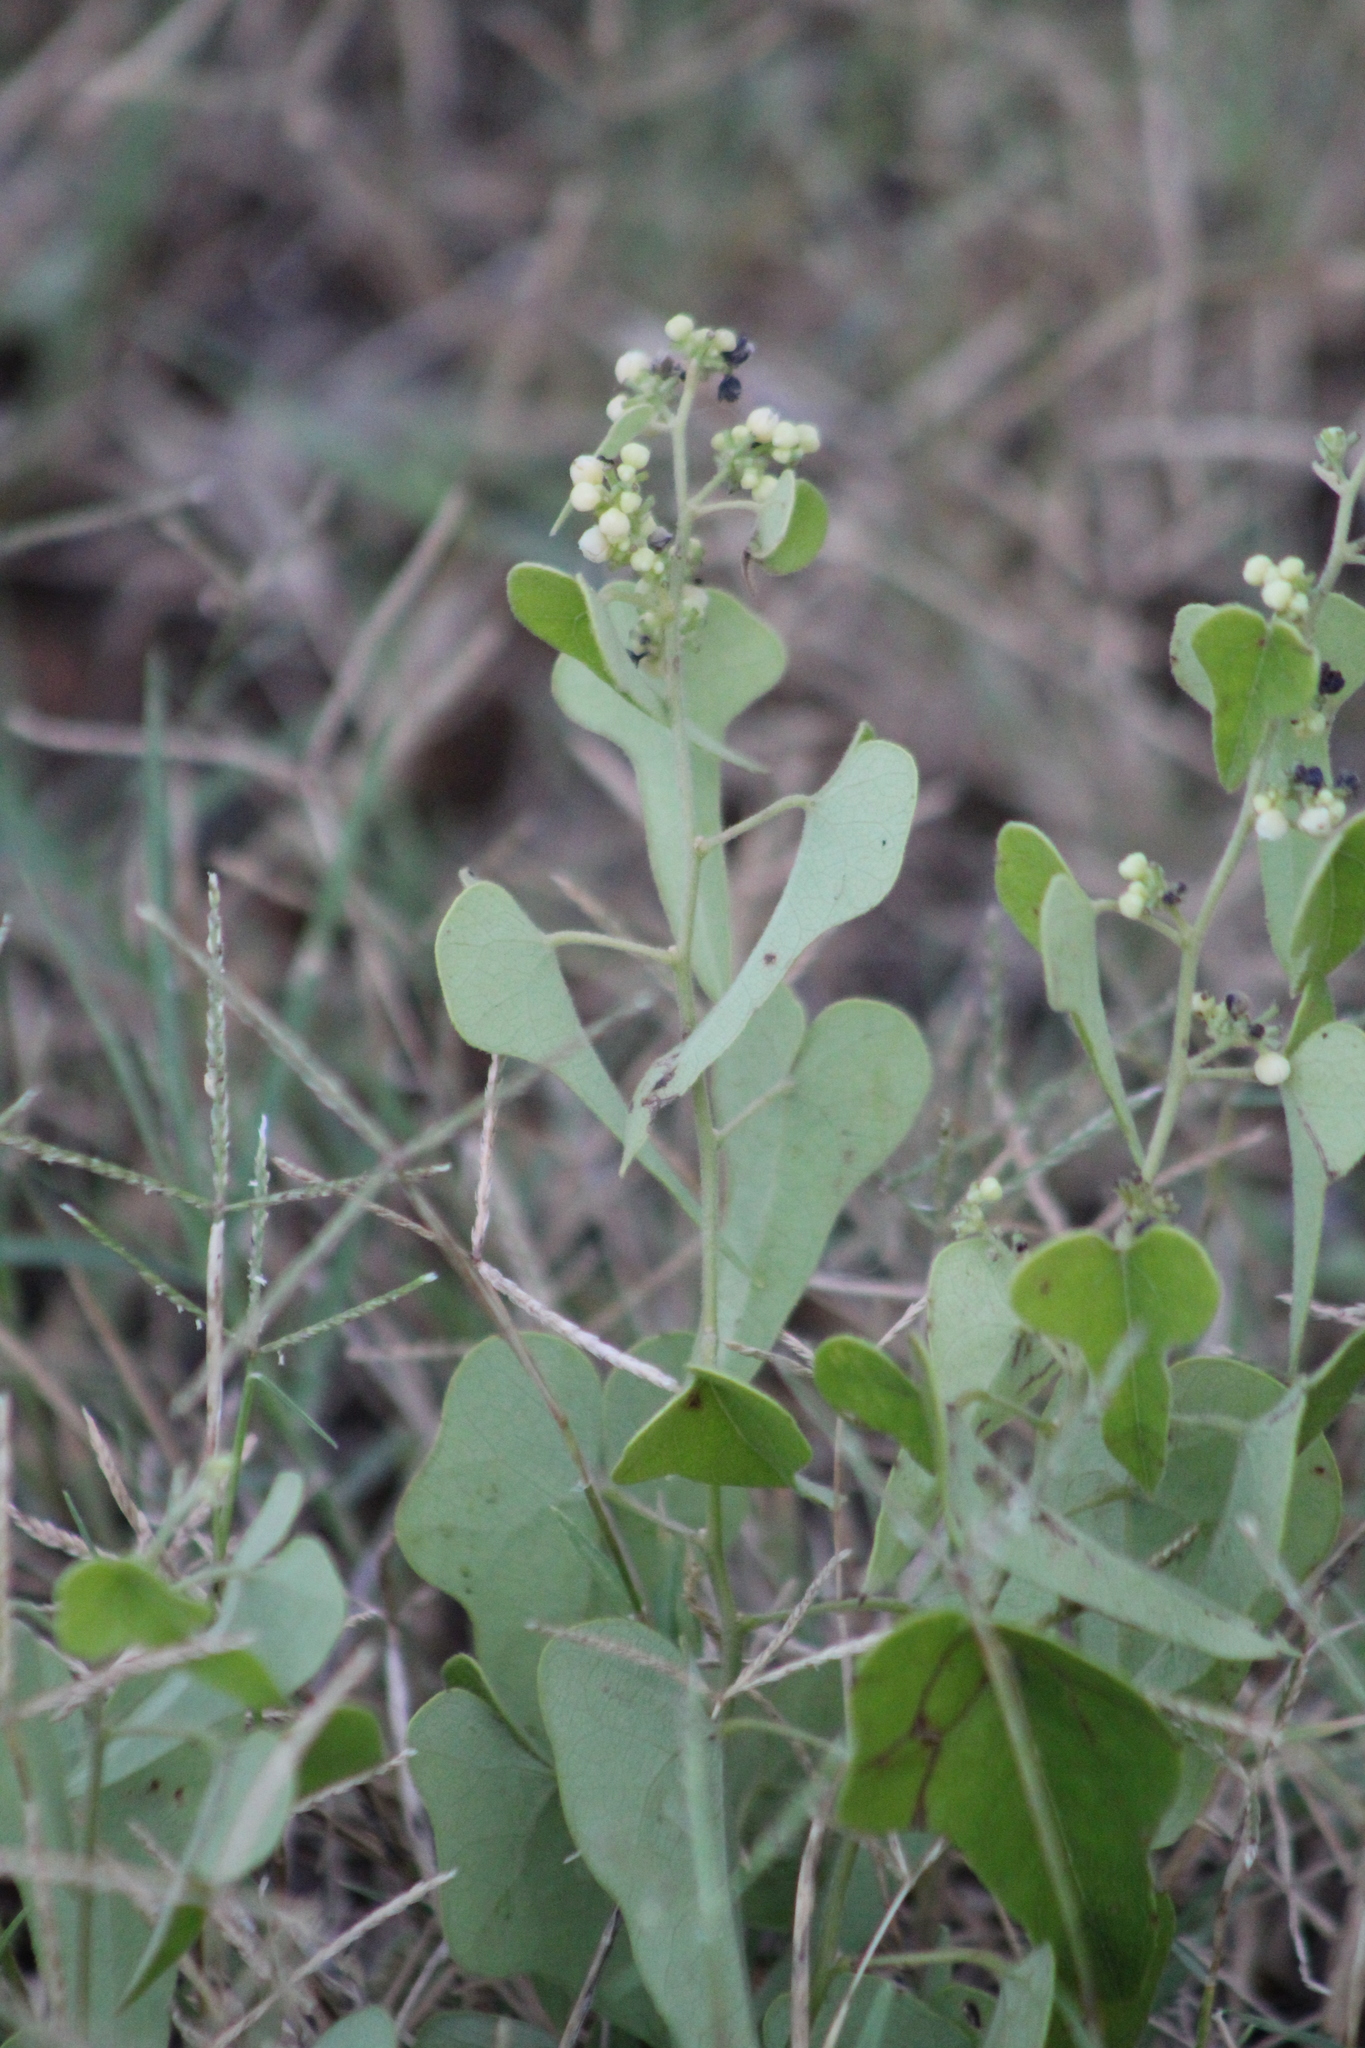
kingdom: Plantae
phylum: Tracheophyta
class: Magnoliopsida
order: Ranunculales
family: Menispermaceae
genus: Cocculus
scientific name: Cocculus carolinus
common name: Carolina moonseed
